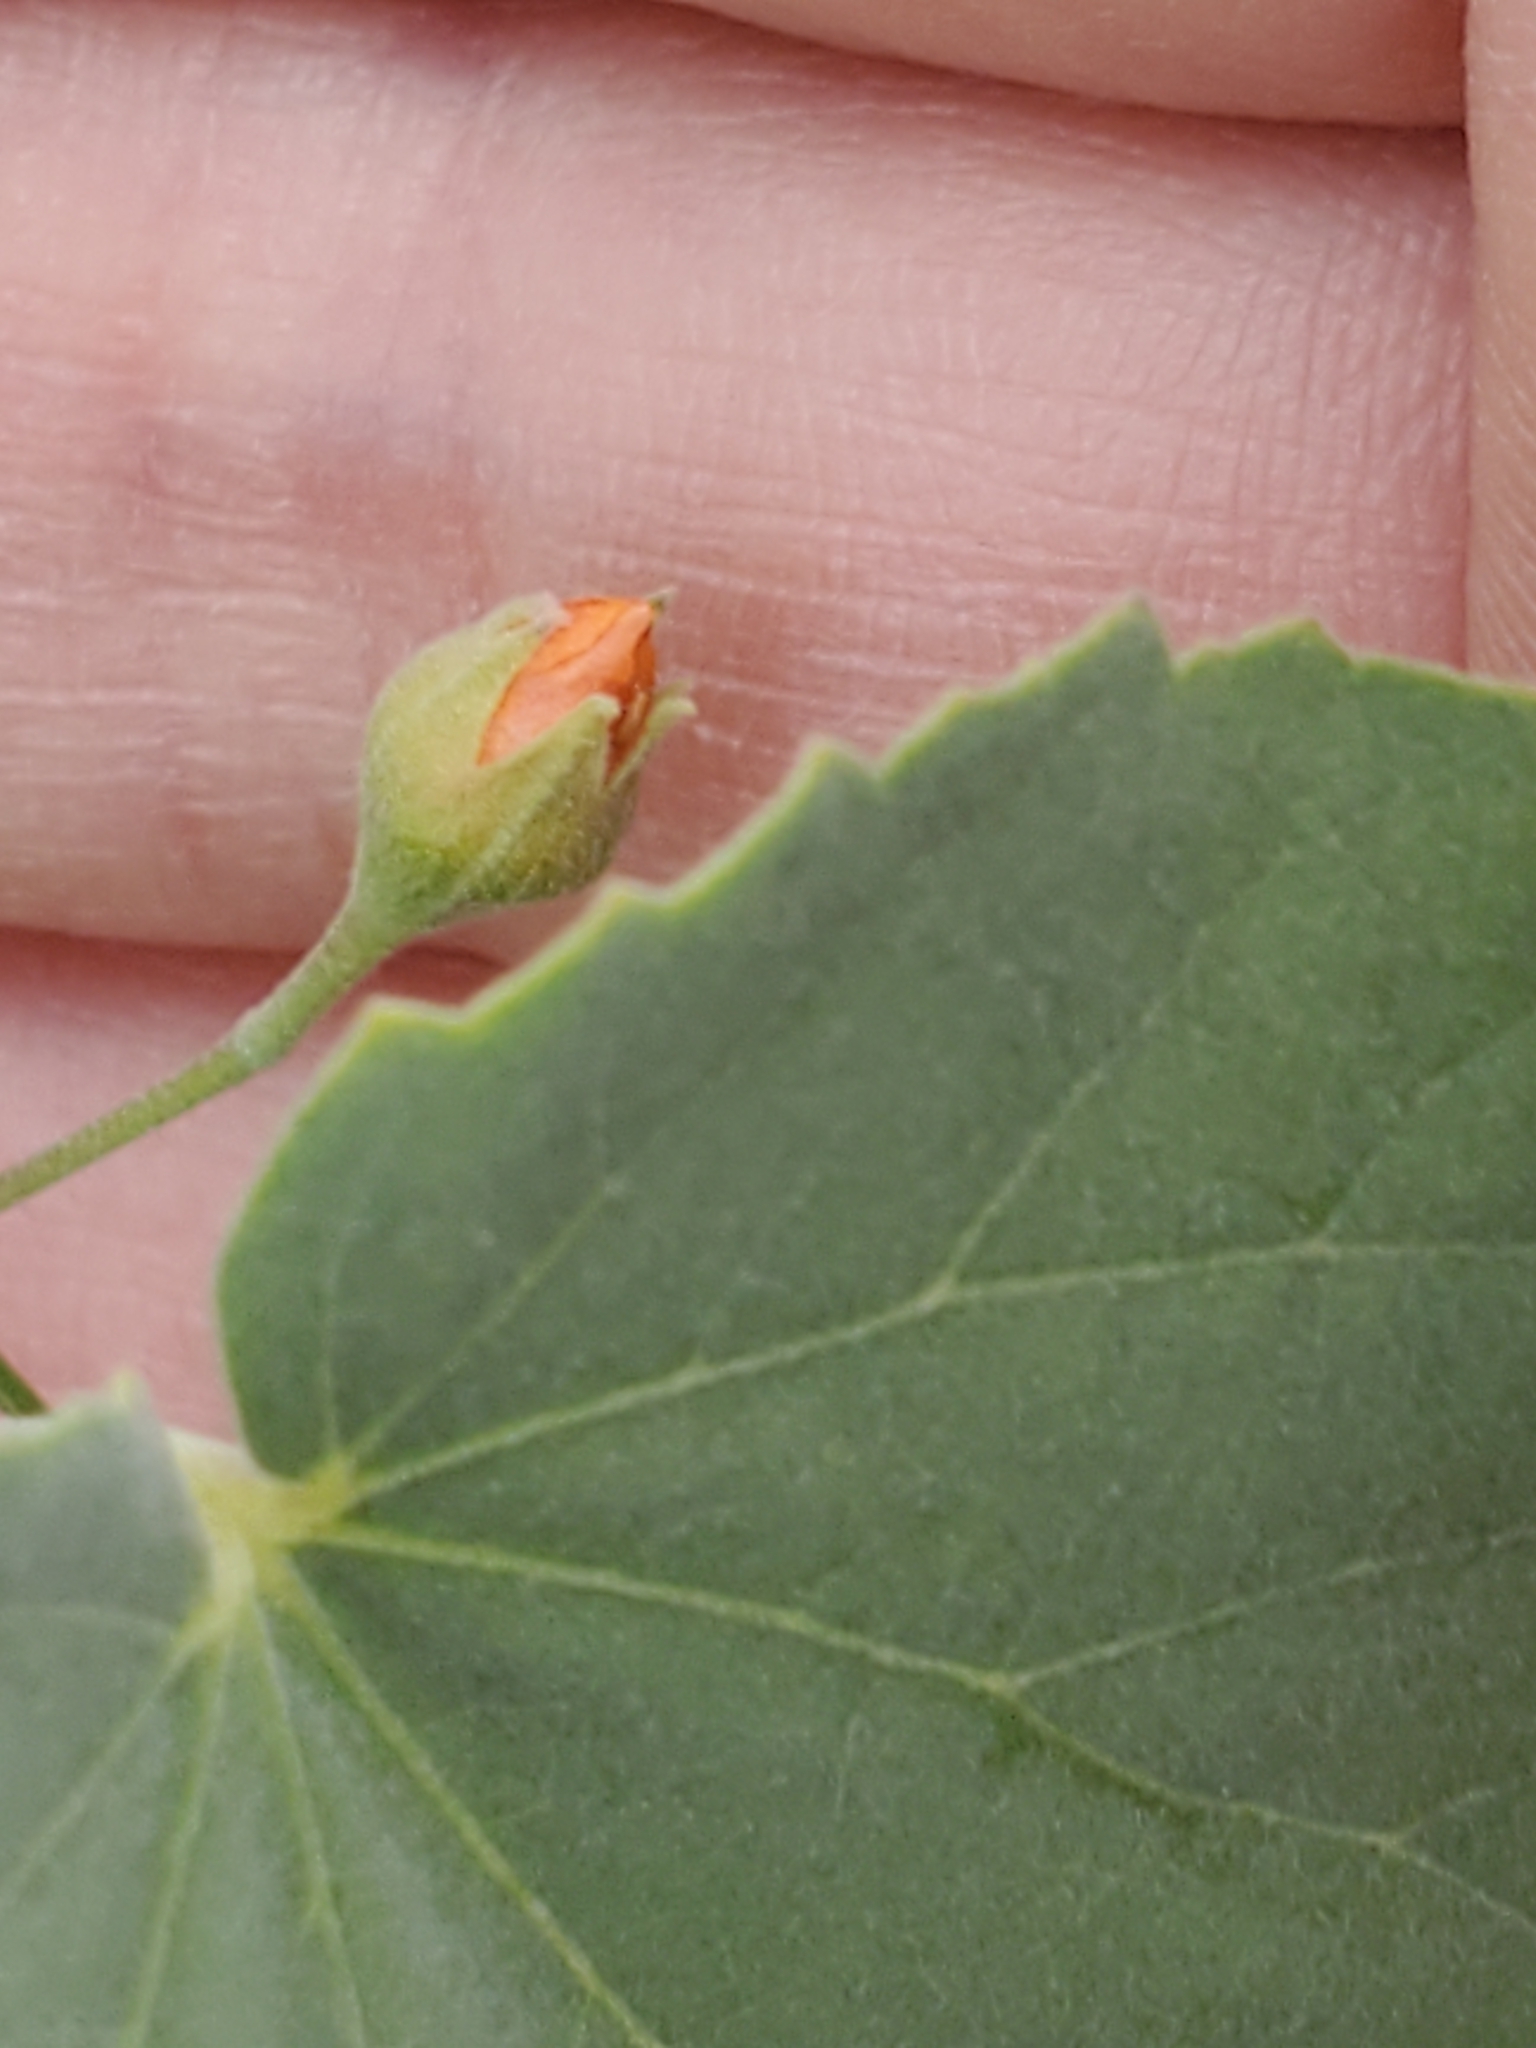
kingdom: Plantae
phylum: Tracheophyta
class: Magnoliopsida
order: Malvales
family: Malvaceae
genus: Abutilon
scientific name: Abutilon fruticosum
